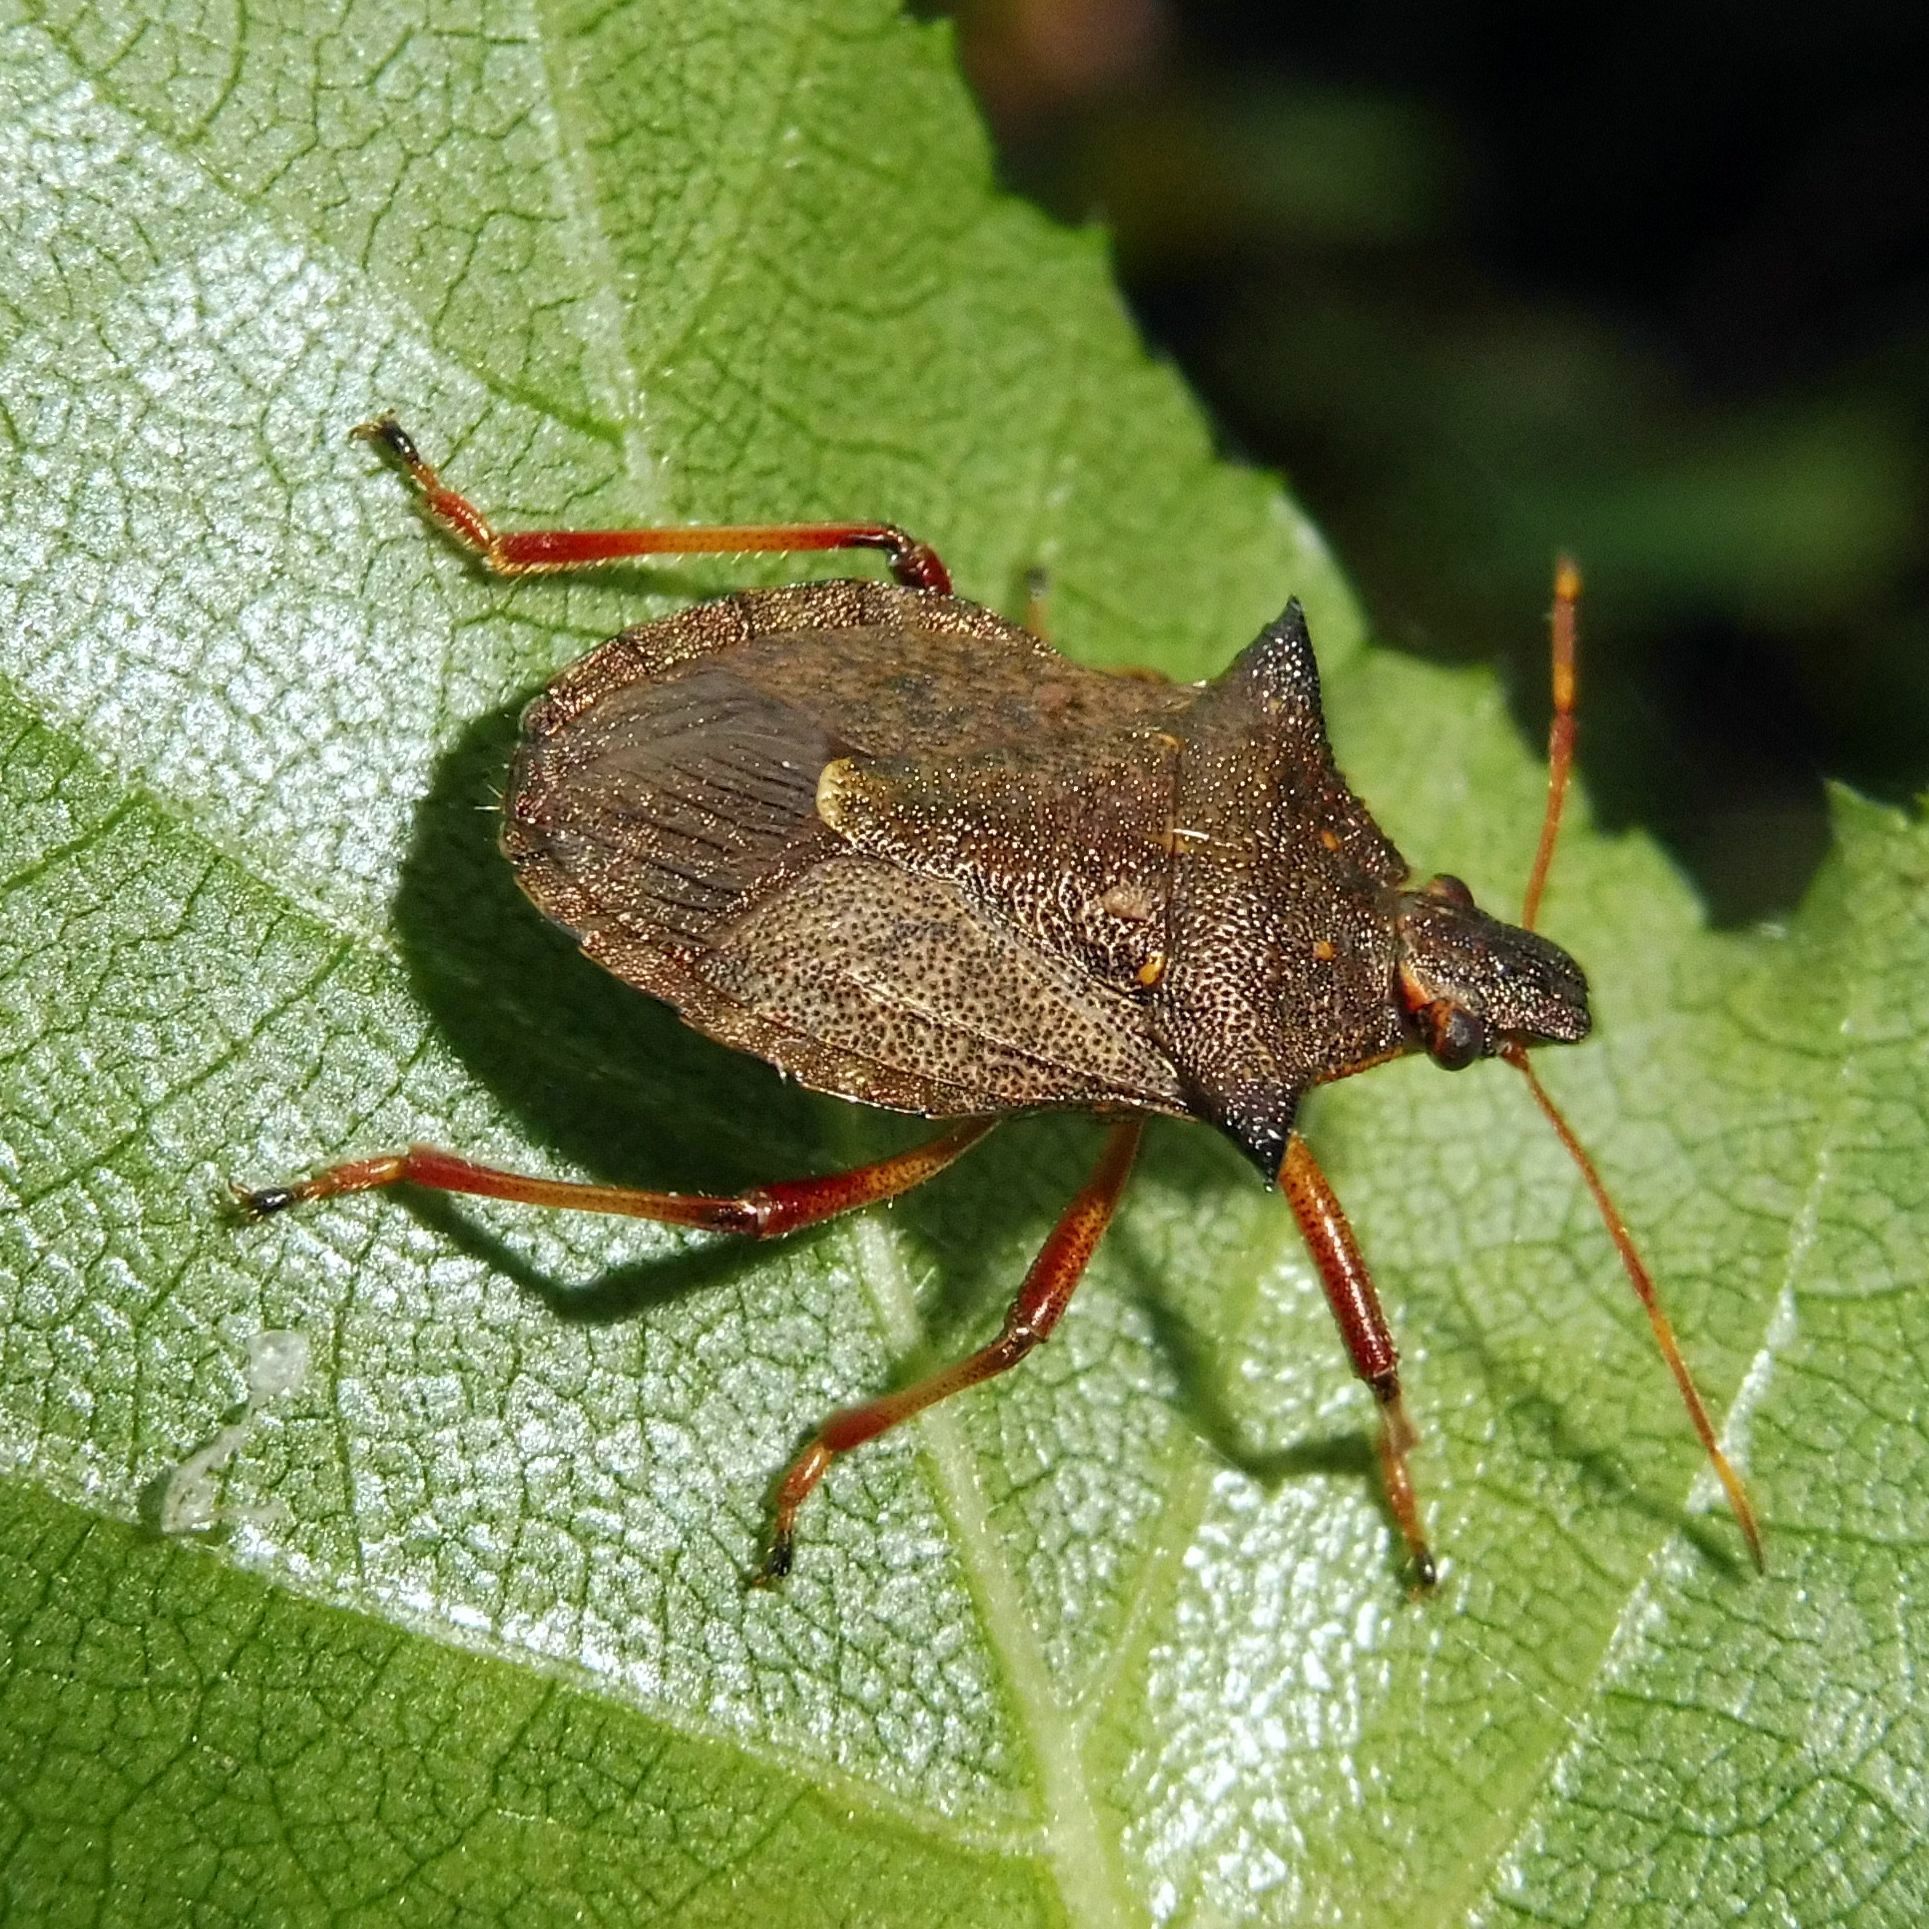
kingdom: Animalia
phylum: Arthropoda
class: Insecta
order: Hemiptera
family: Pentatomidae
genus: Picromerus
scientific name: Picromerus bidens
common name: Spiked shieldbug
